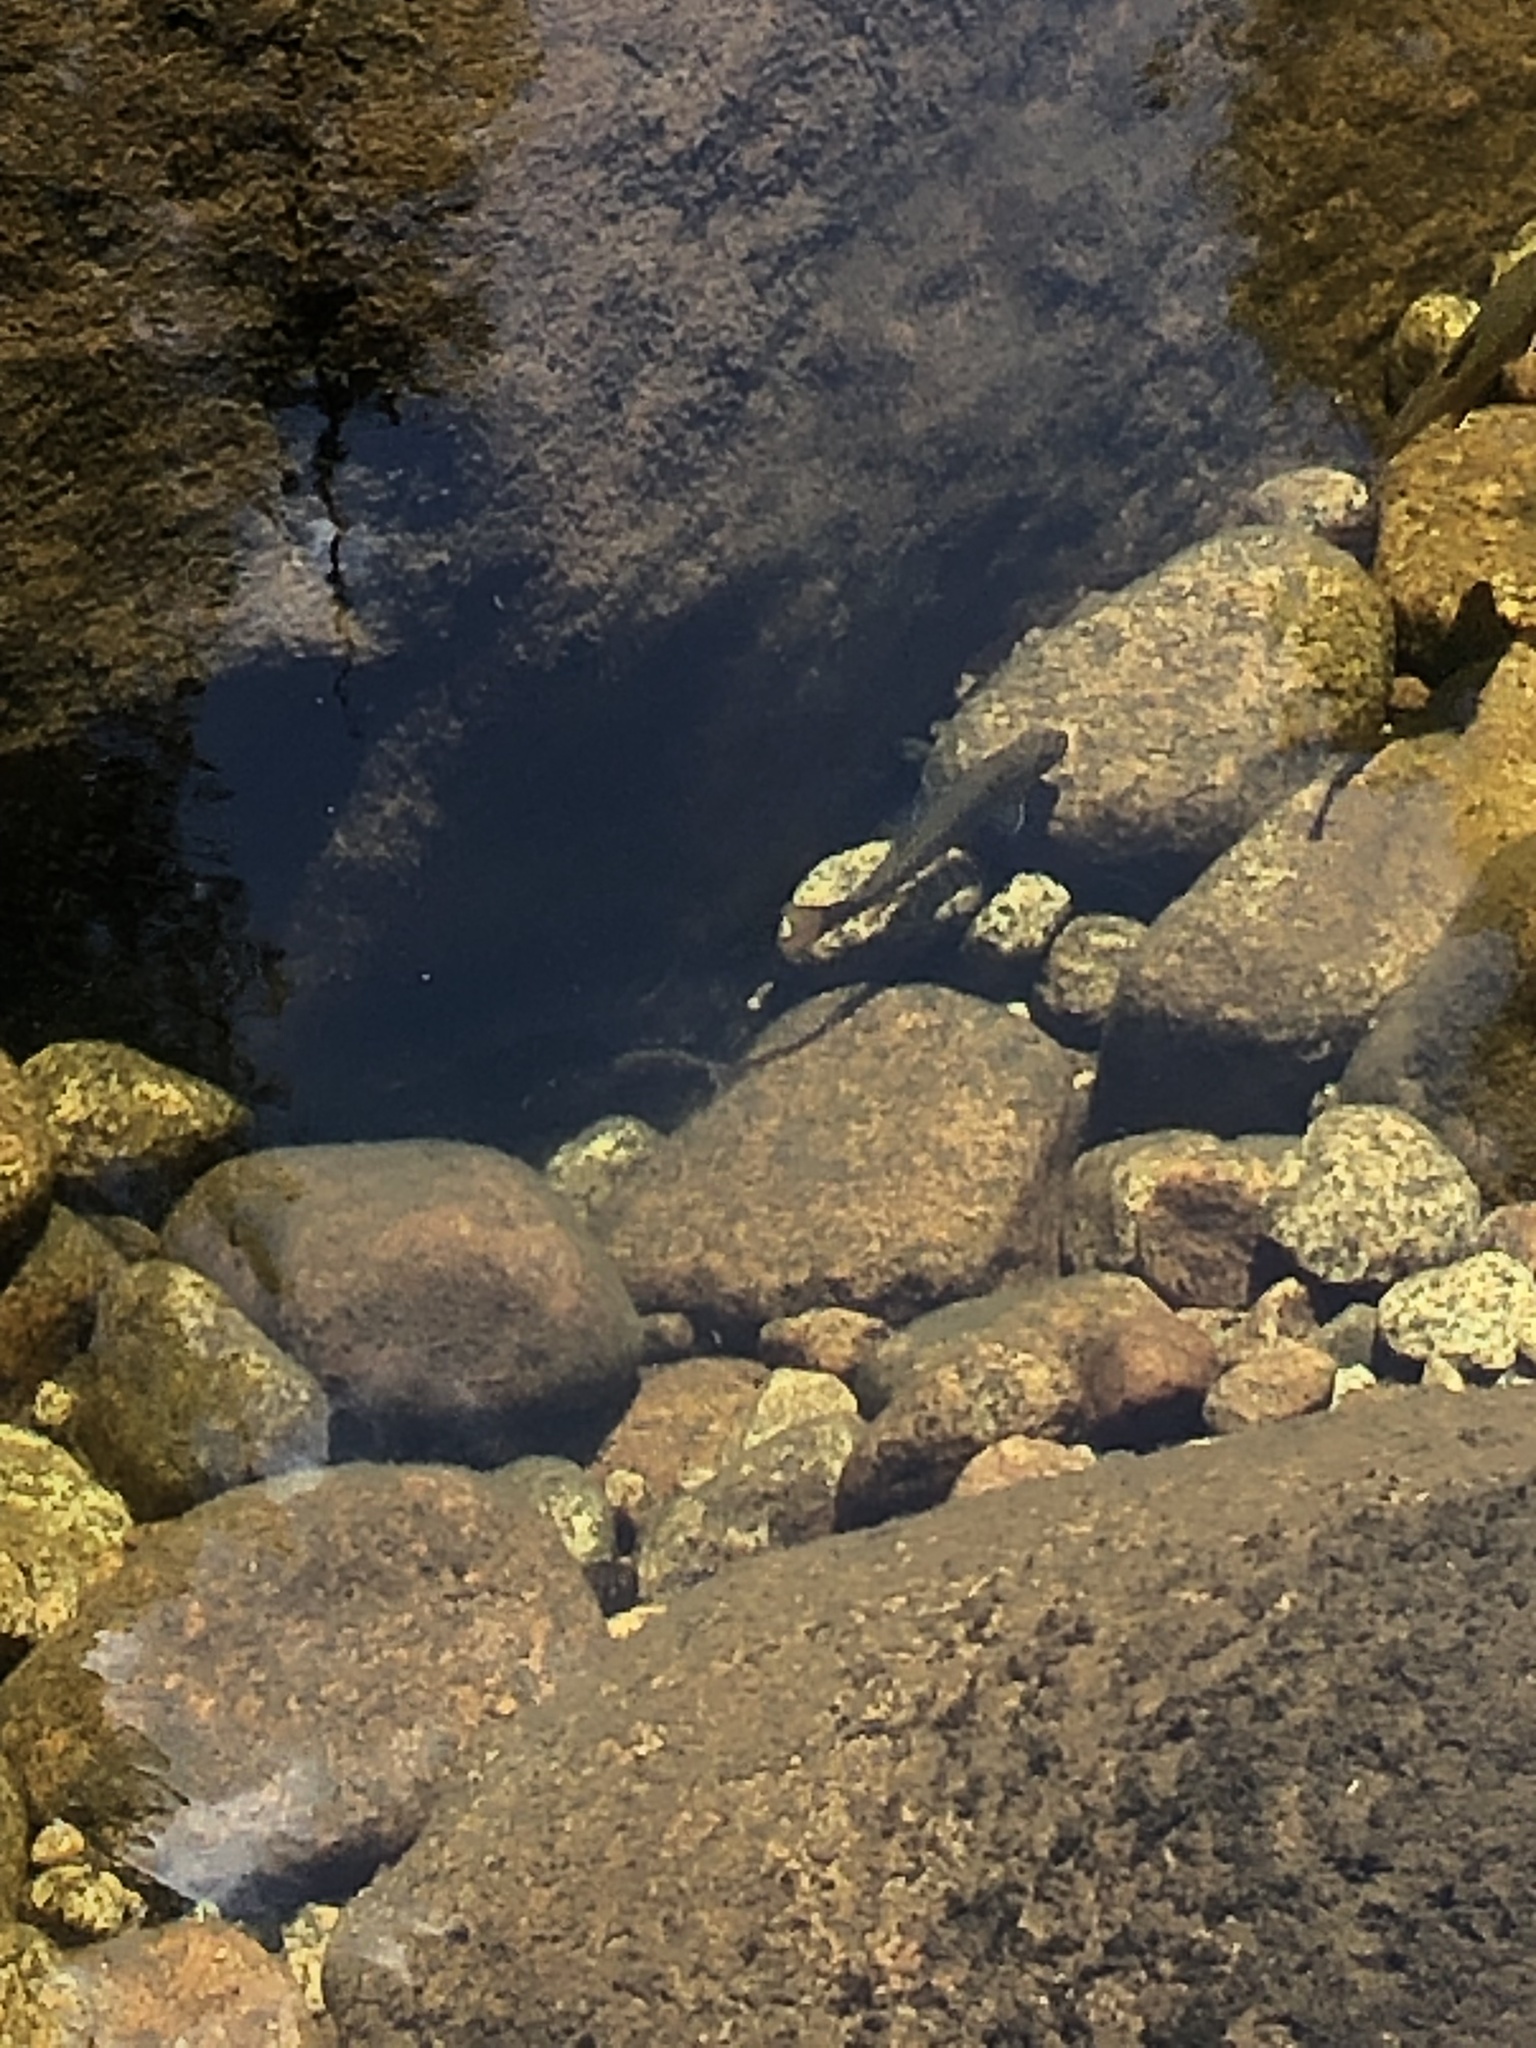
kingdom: Animalia
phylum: Chordata
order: Salmoniformes
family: Salmonidae
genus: Salvelinus
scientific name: Salvelinus fontinalis
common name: Brook trout
